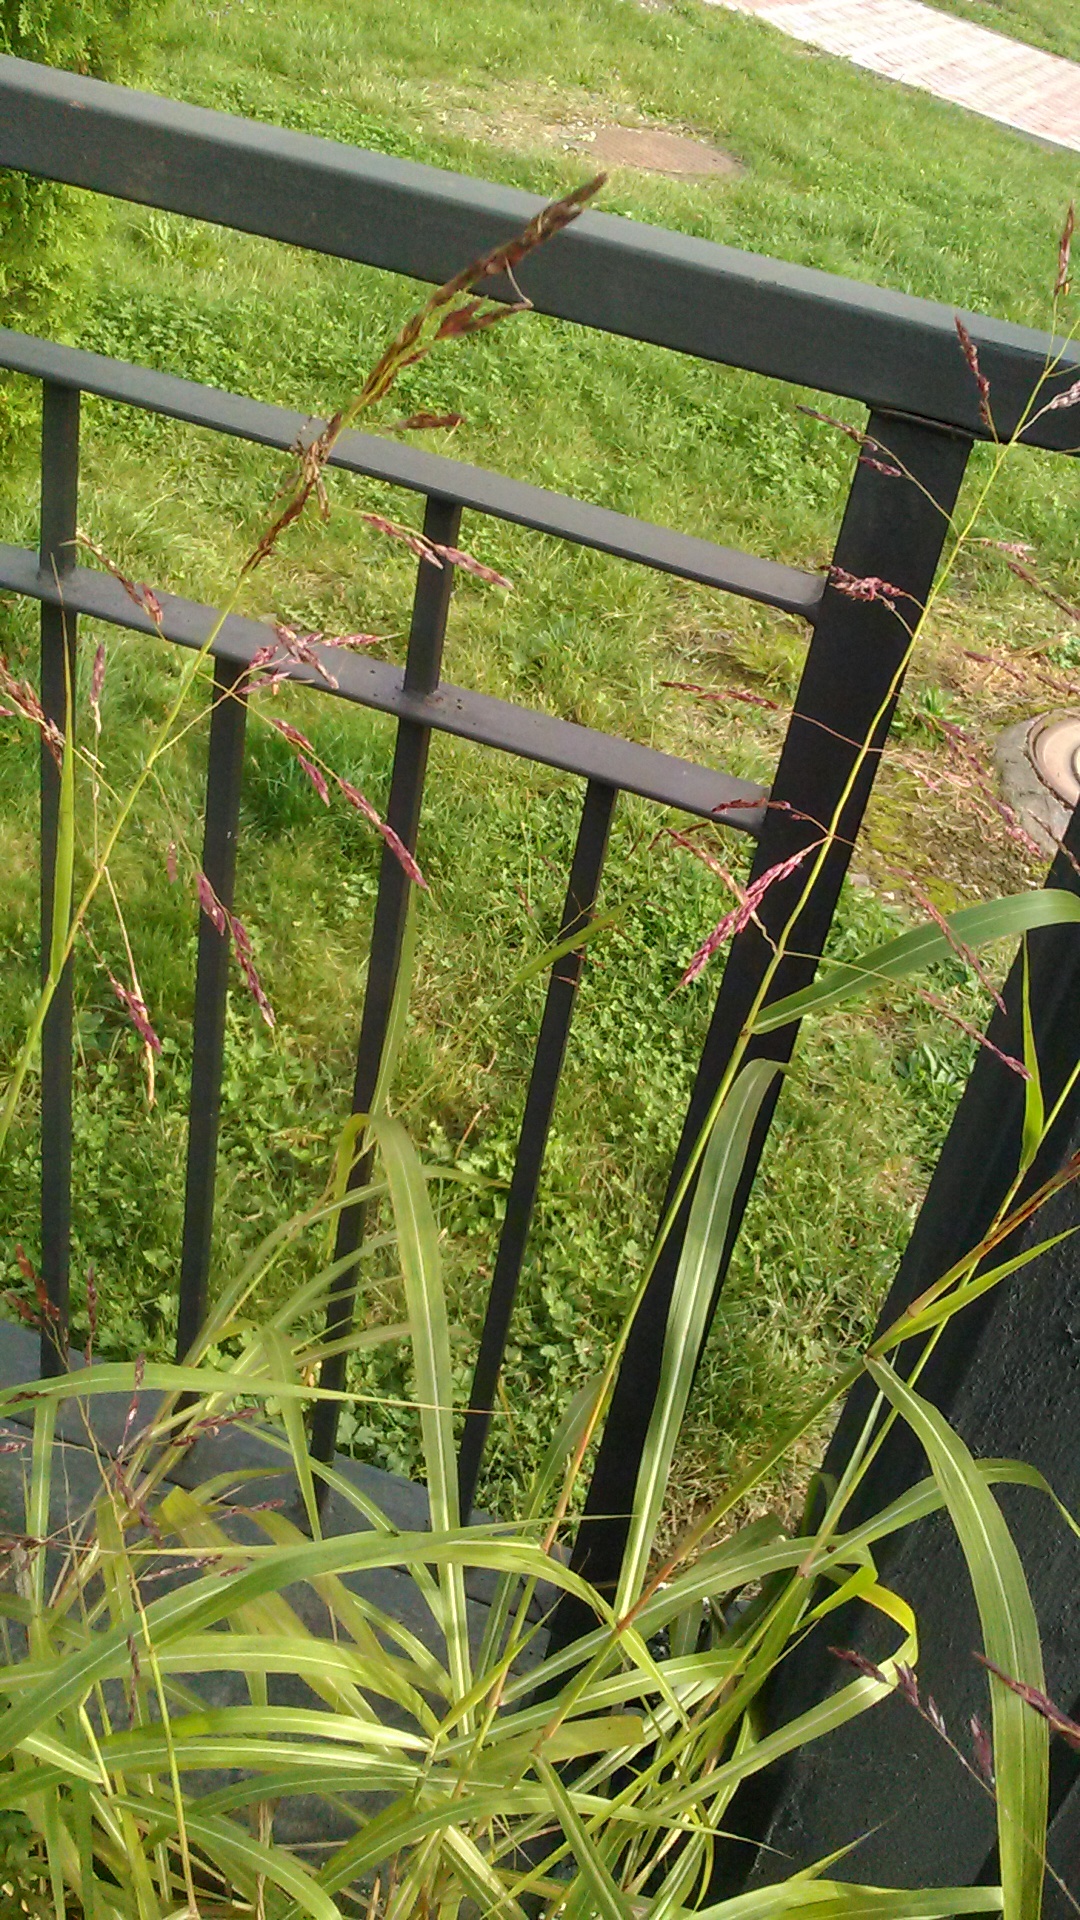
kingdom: Plantae
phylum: Tracheophyta
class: Liliopsida
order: Poales
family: Poaceae
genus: Sorghum
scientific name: Sorghum halepense
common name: Johnson-grass
